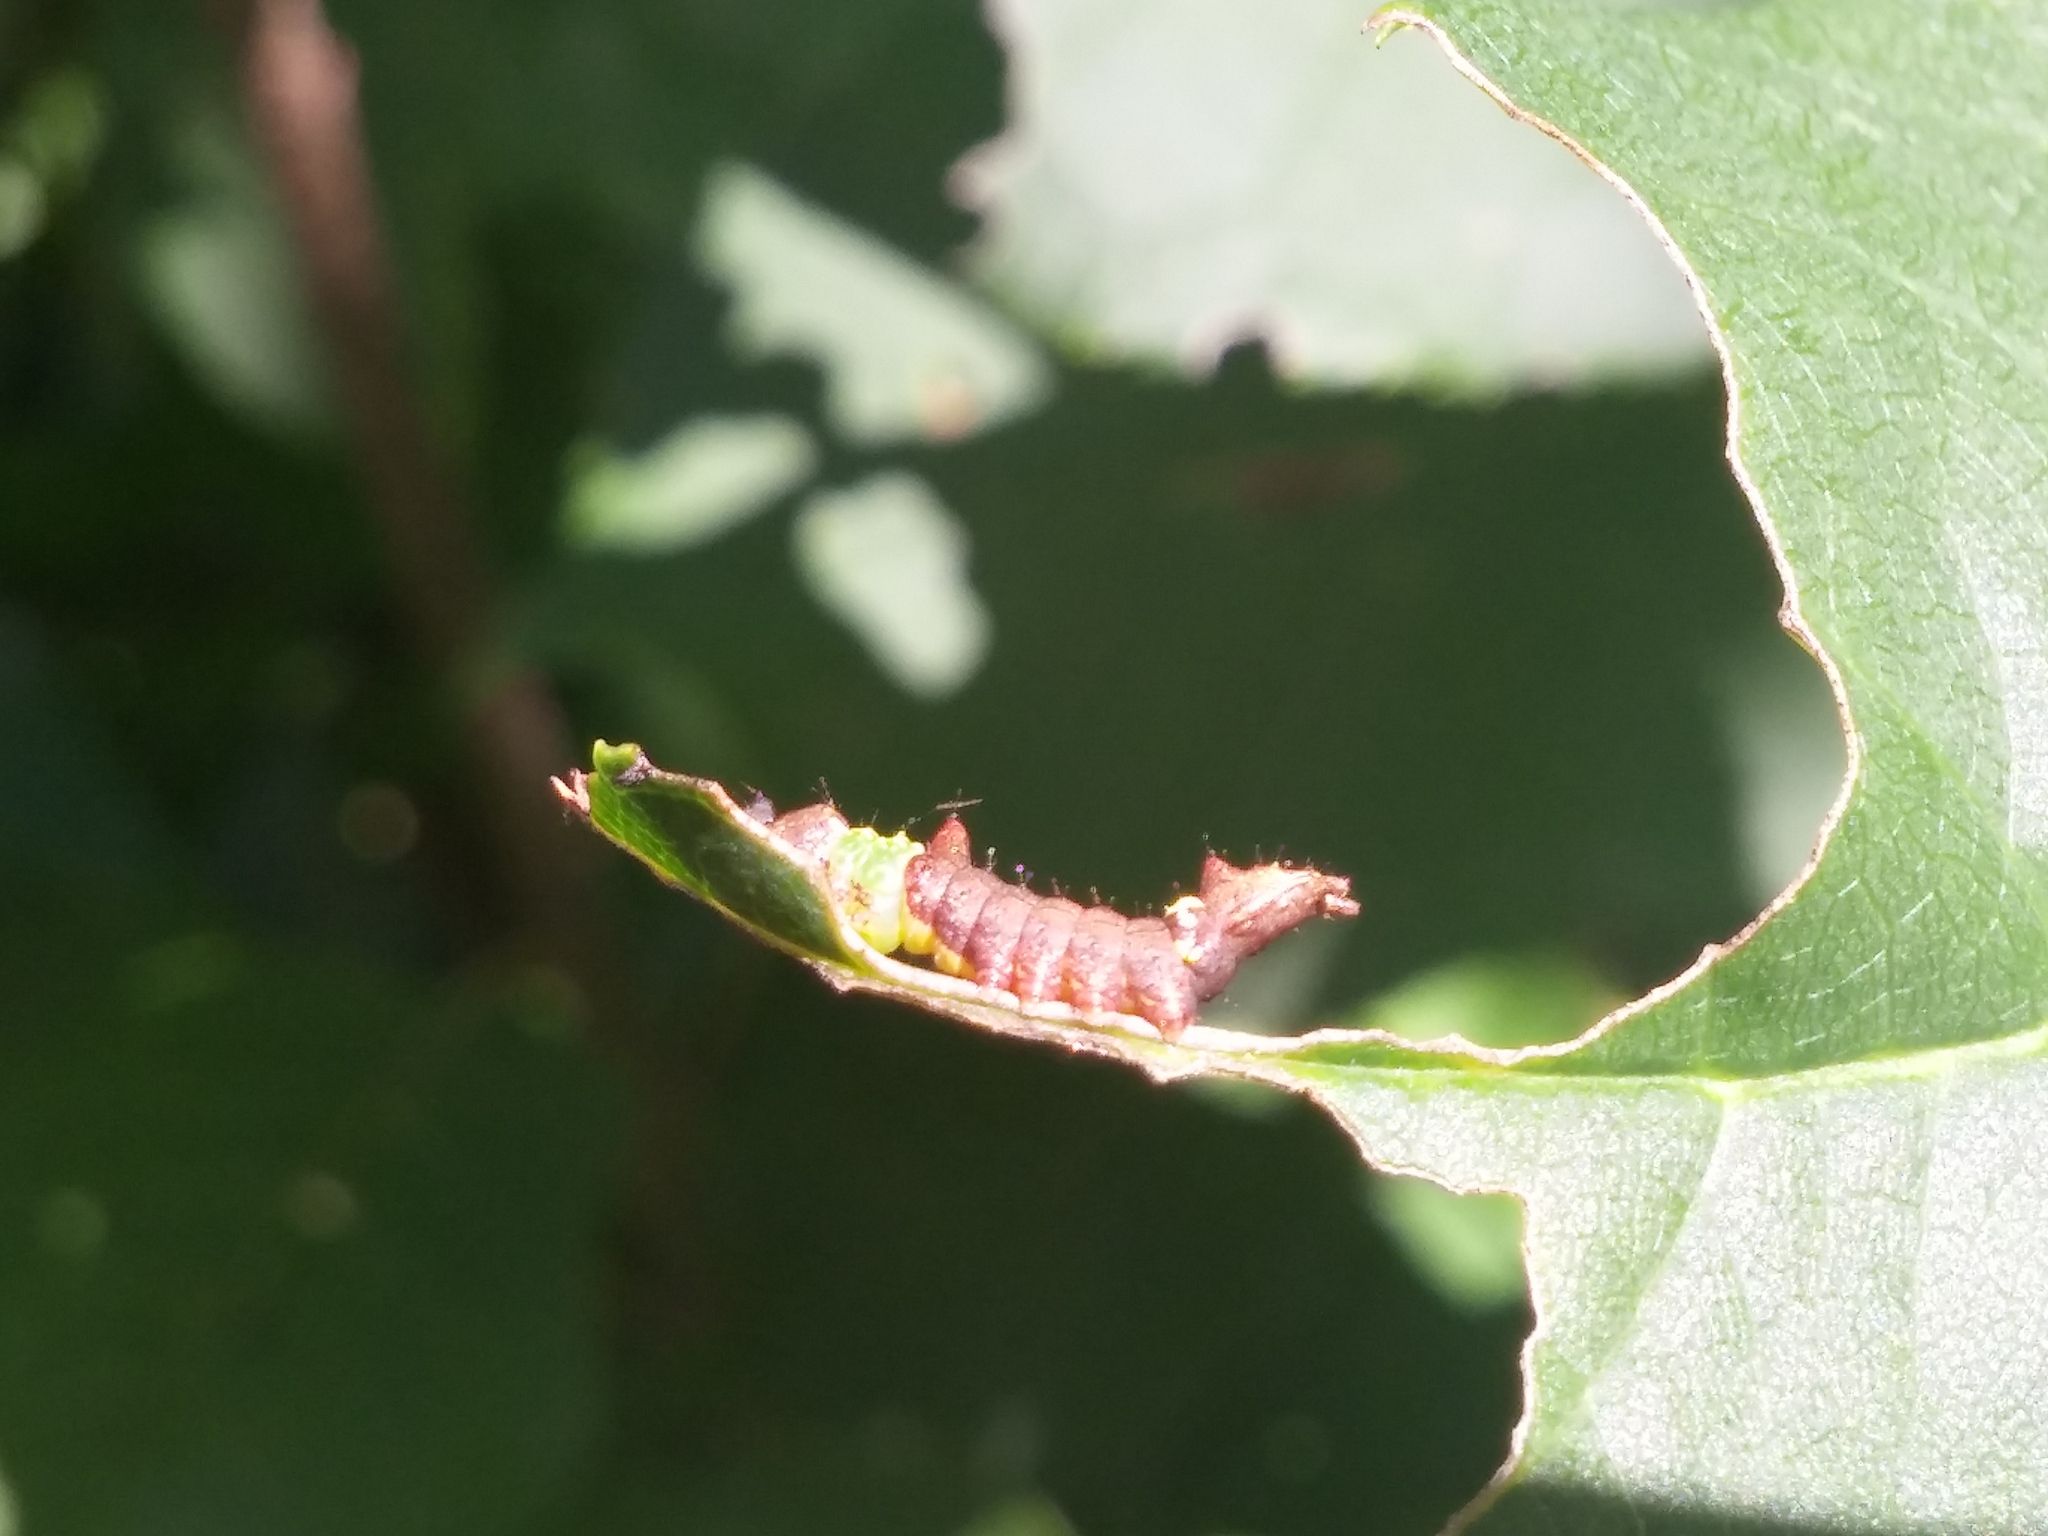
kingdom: Animalia
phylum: Arthropoda
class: Insecta
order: Lepidoptera
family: Notodontidae
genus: Schizura
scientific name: Schizura
